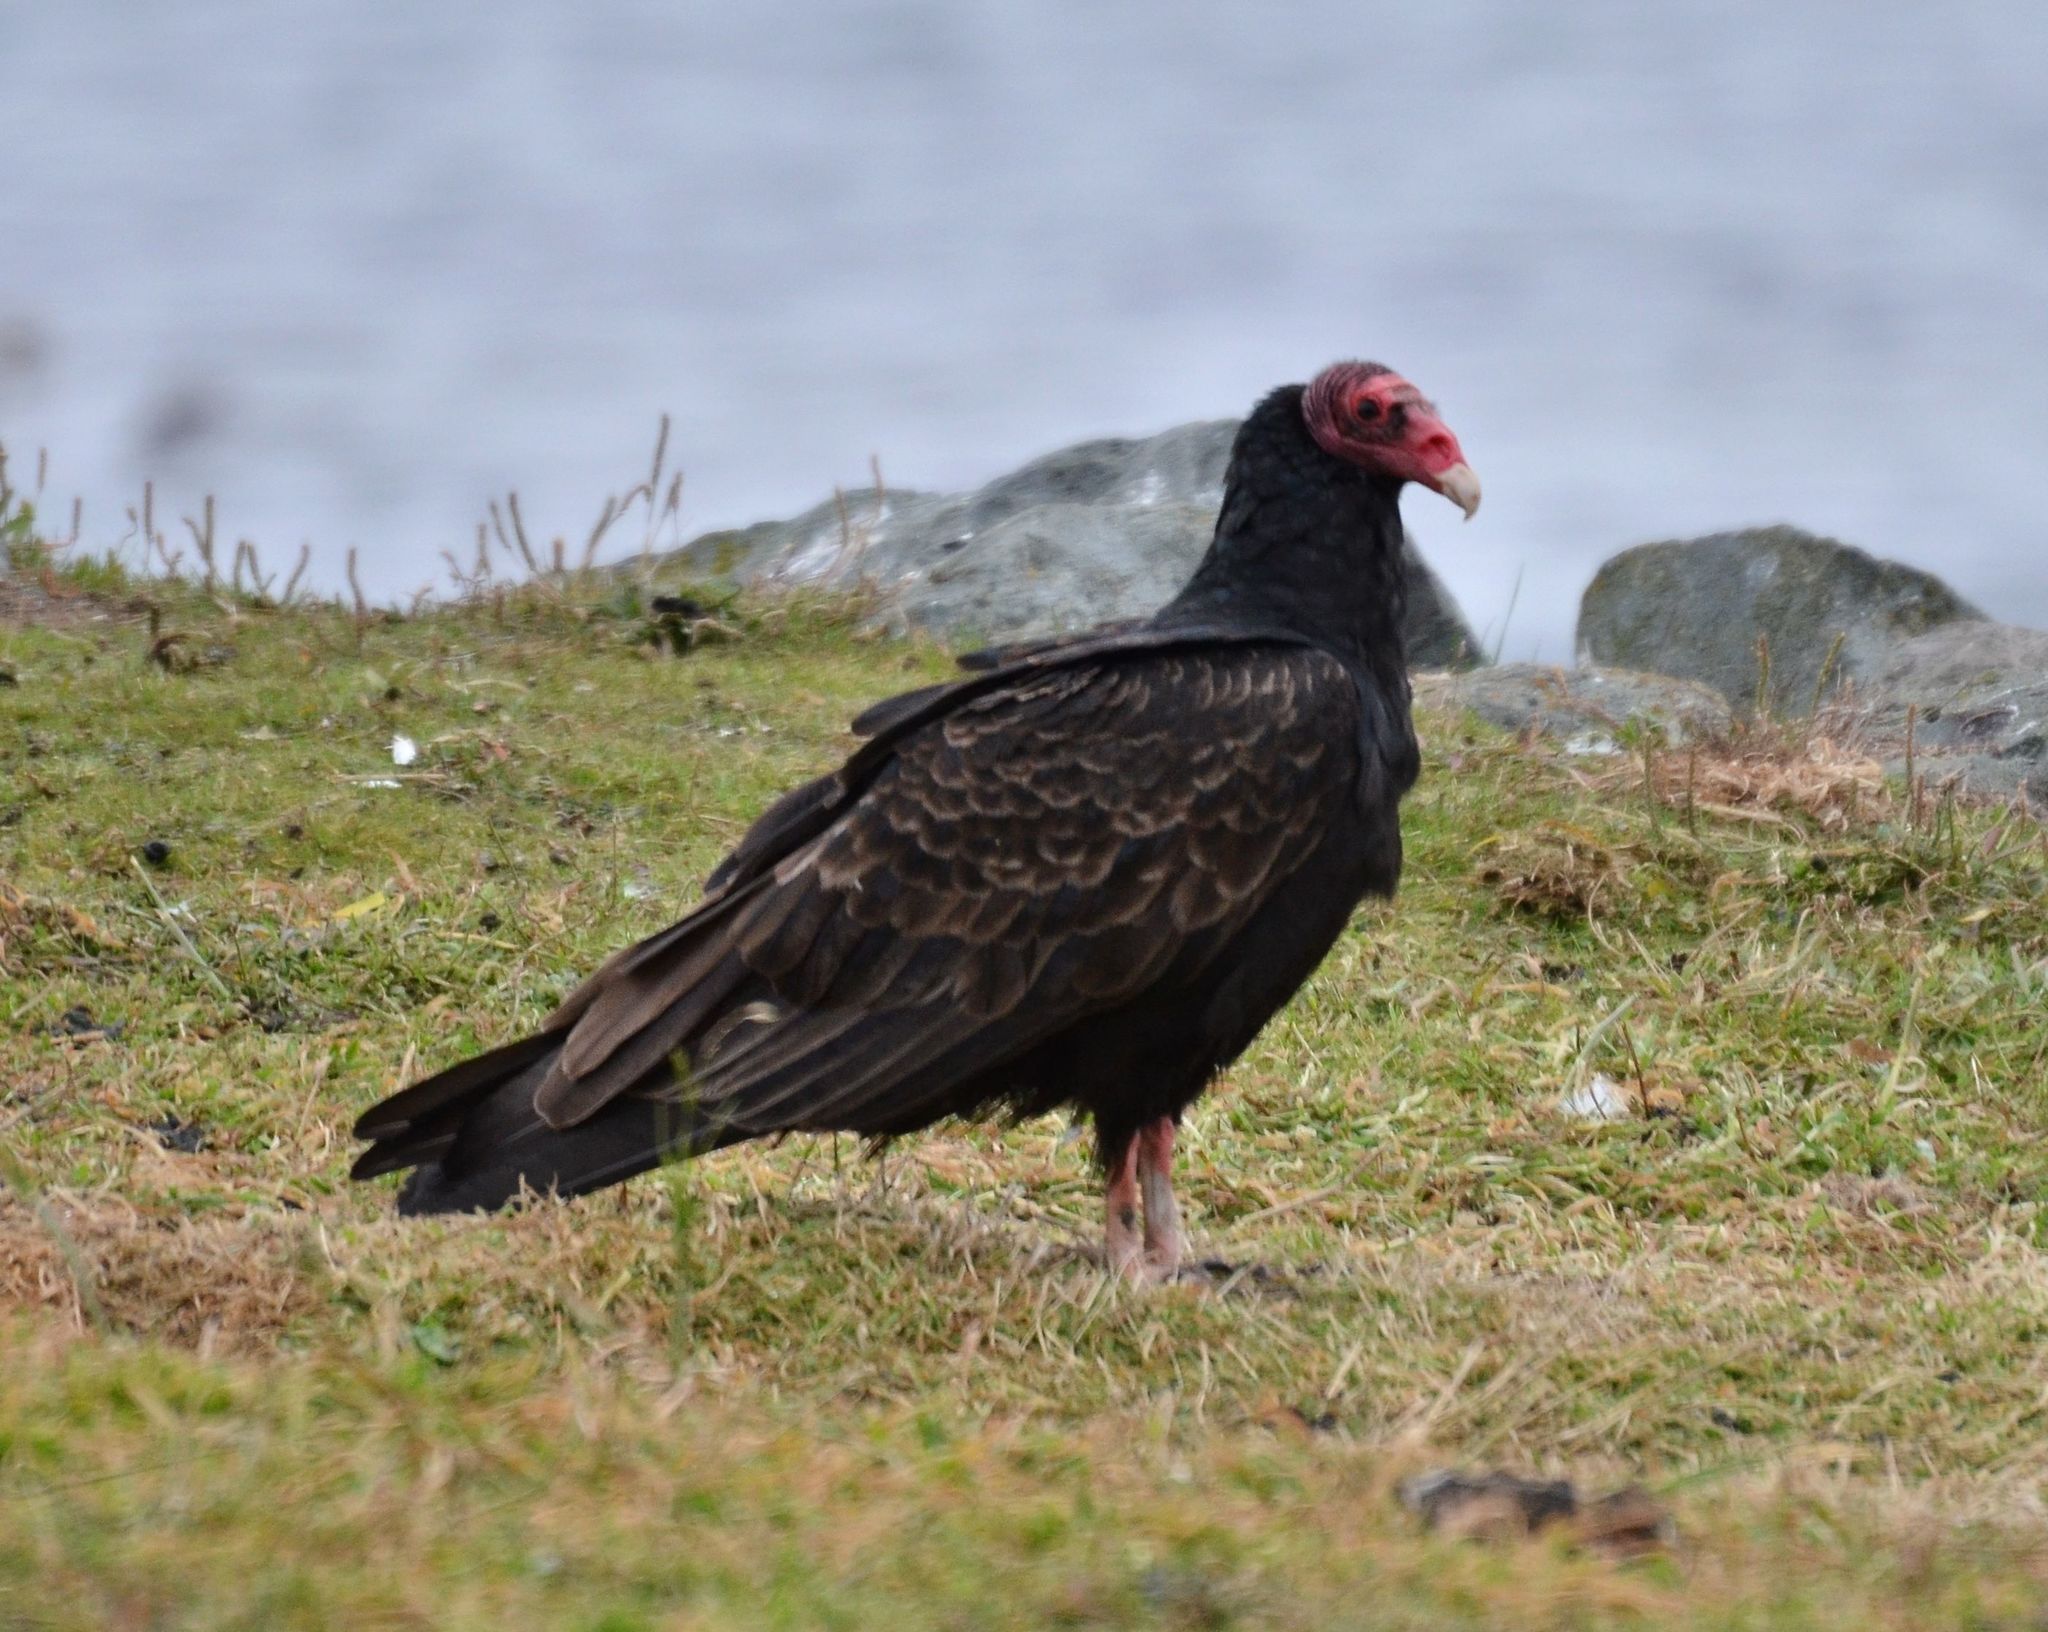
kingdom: Animalia
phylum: Chordata
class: Aves
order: Accipitriformes
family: Cathartidae
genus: Cathartes
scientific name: Cathartes aura
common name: Turkey vulture
